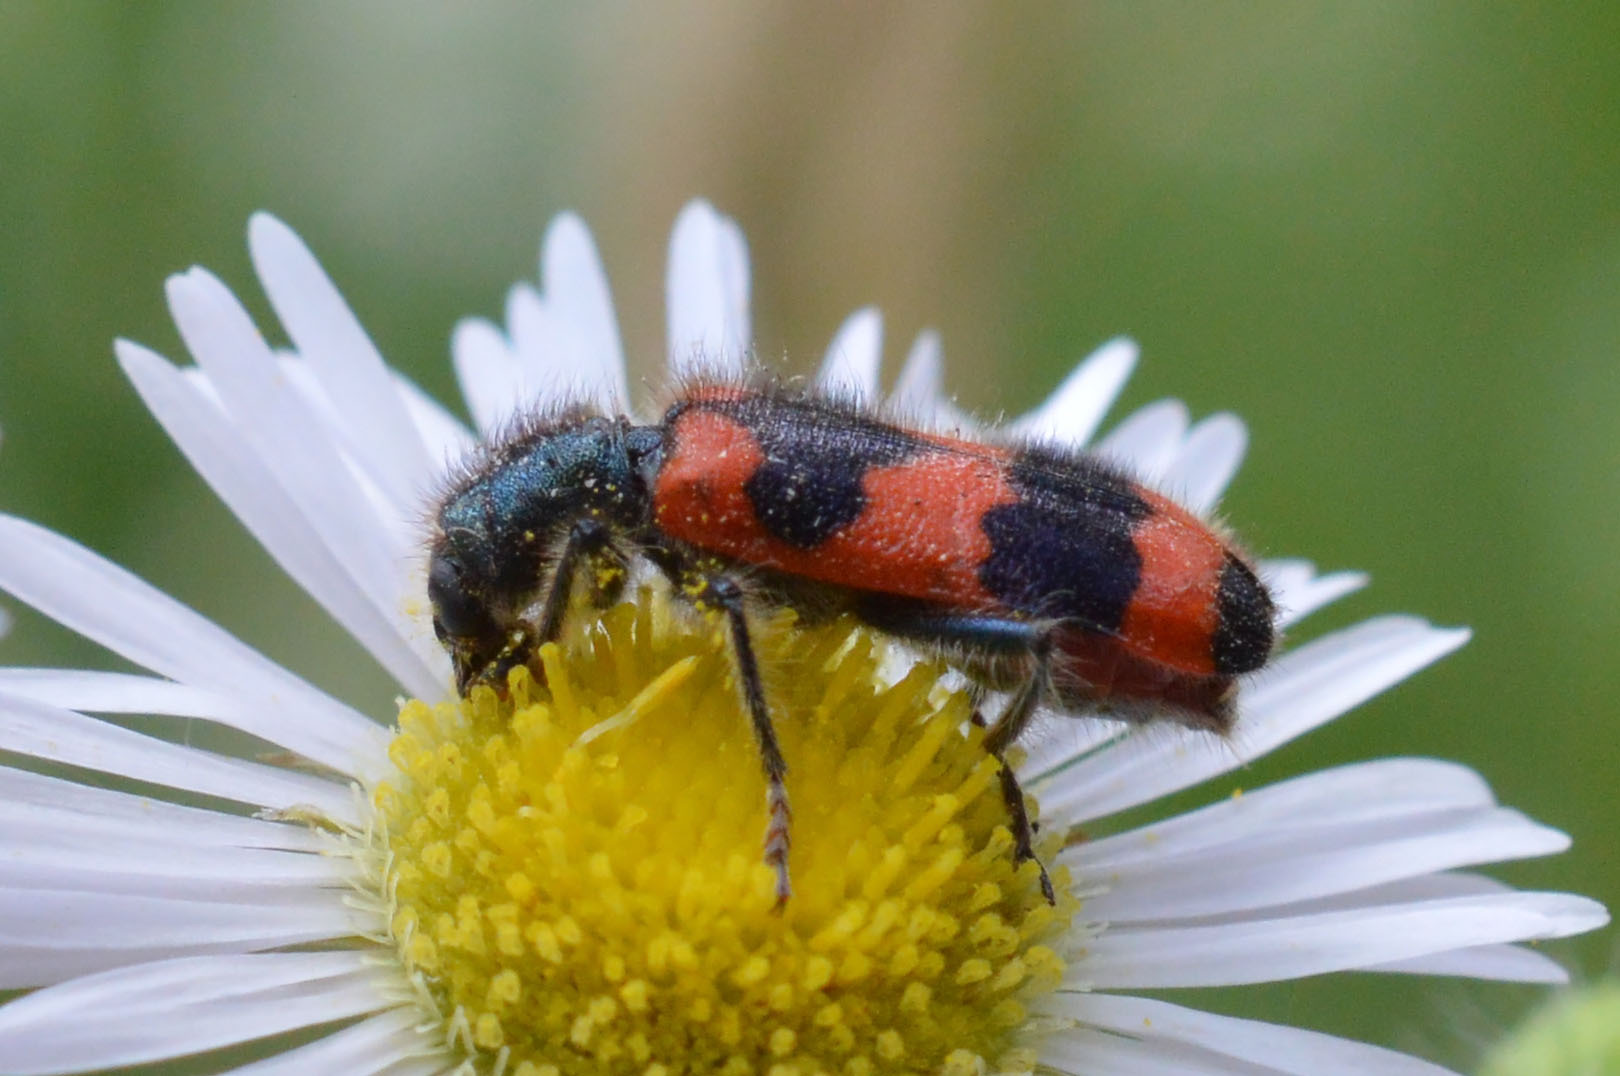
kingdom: Animalia
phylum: Arthropoda
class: Insecta
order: Coleoptera
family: Cleridae
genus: Trichodes
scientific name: Trichodes apiarius
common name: Bee-eating beetle
